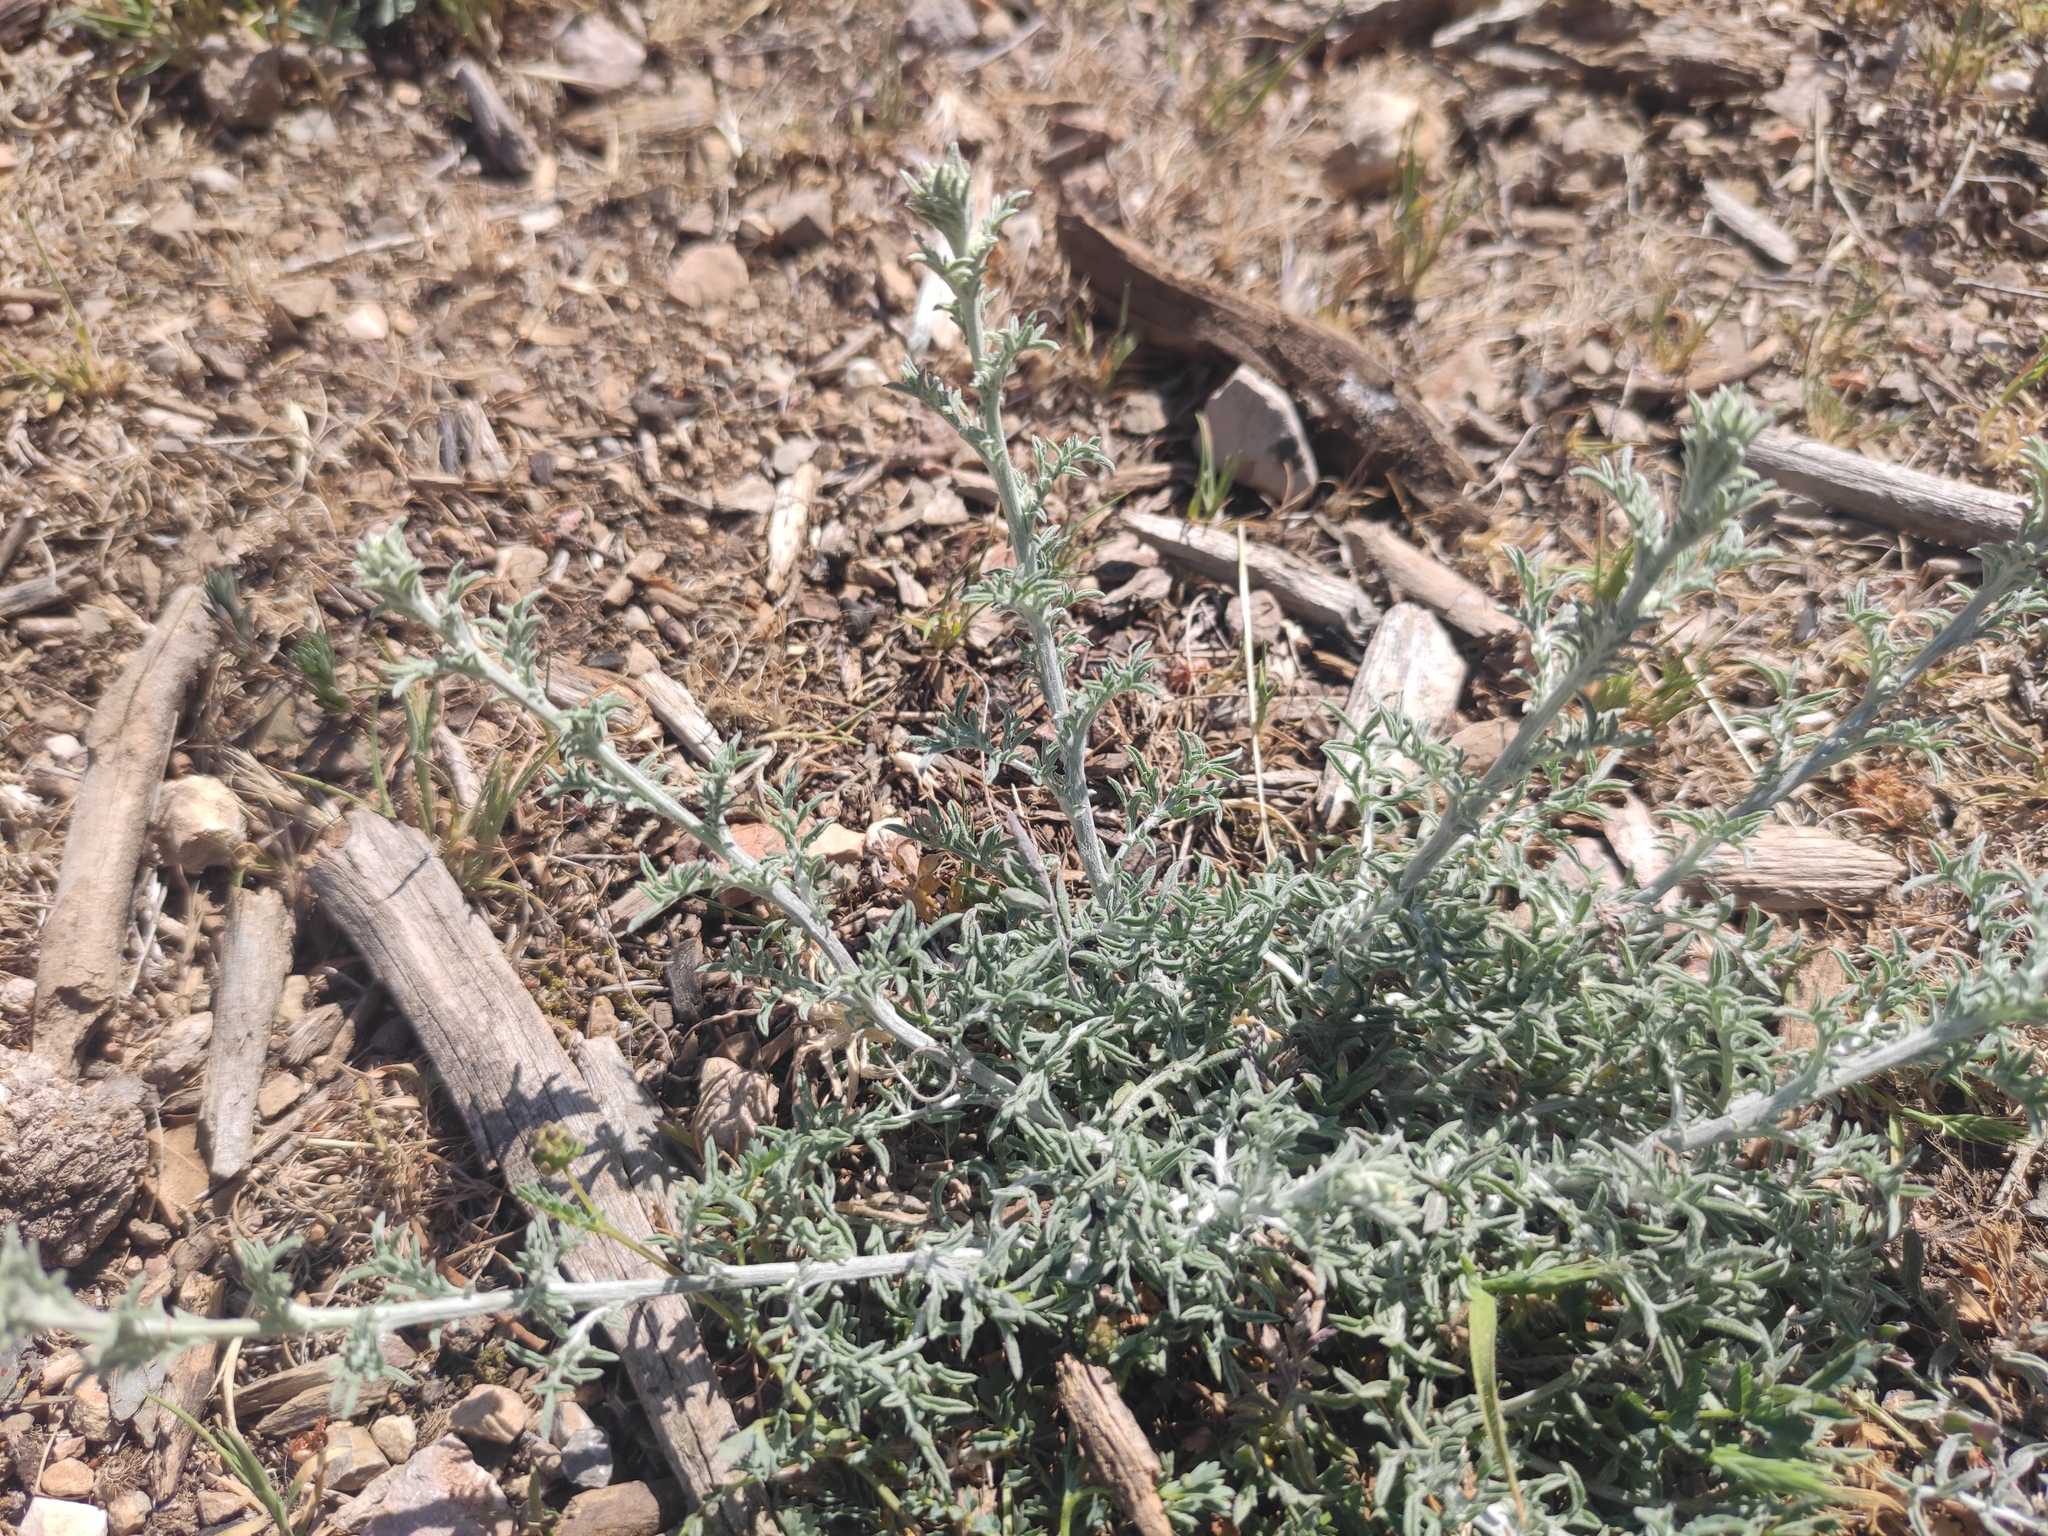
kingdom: Plantae
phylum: Tracheophyta
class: Magnoliopsida
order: Asterales
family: Asteraceae
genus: Centaurea
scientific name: Centaurea paniculata
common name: Jersey knapweed
